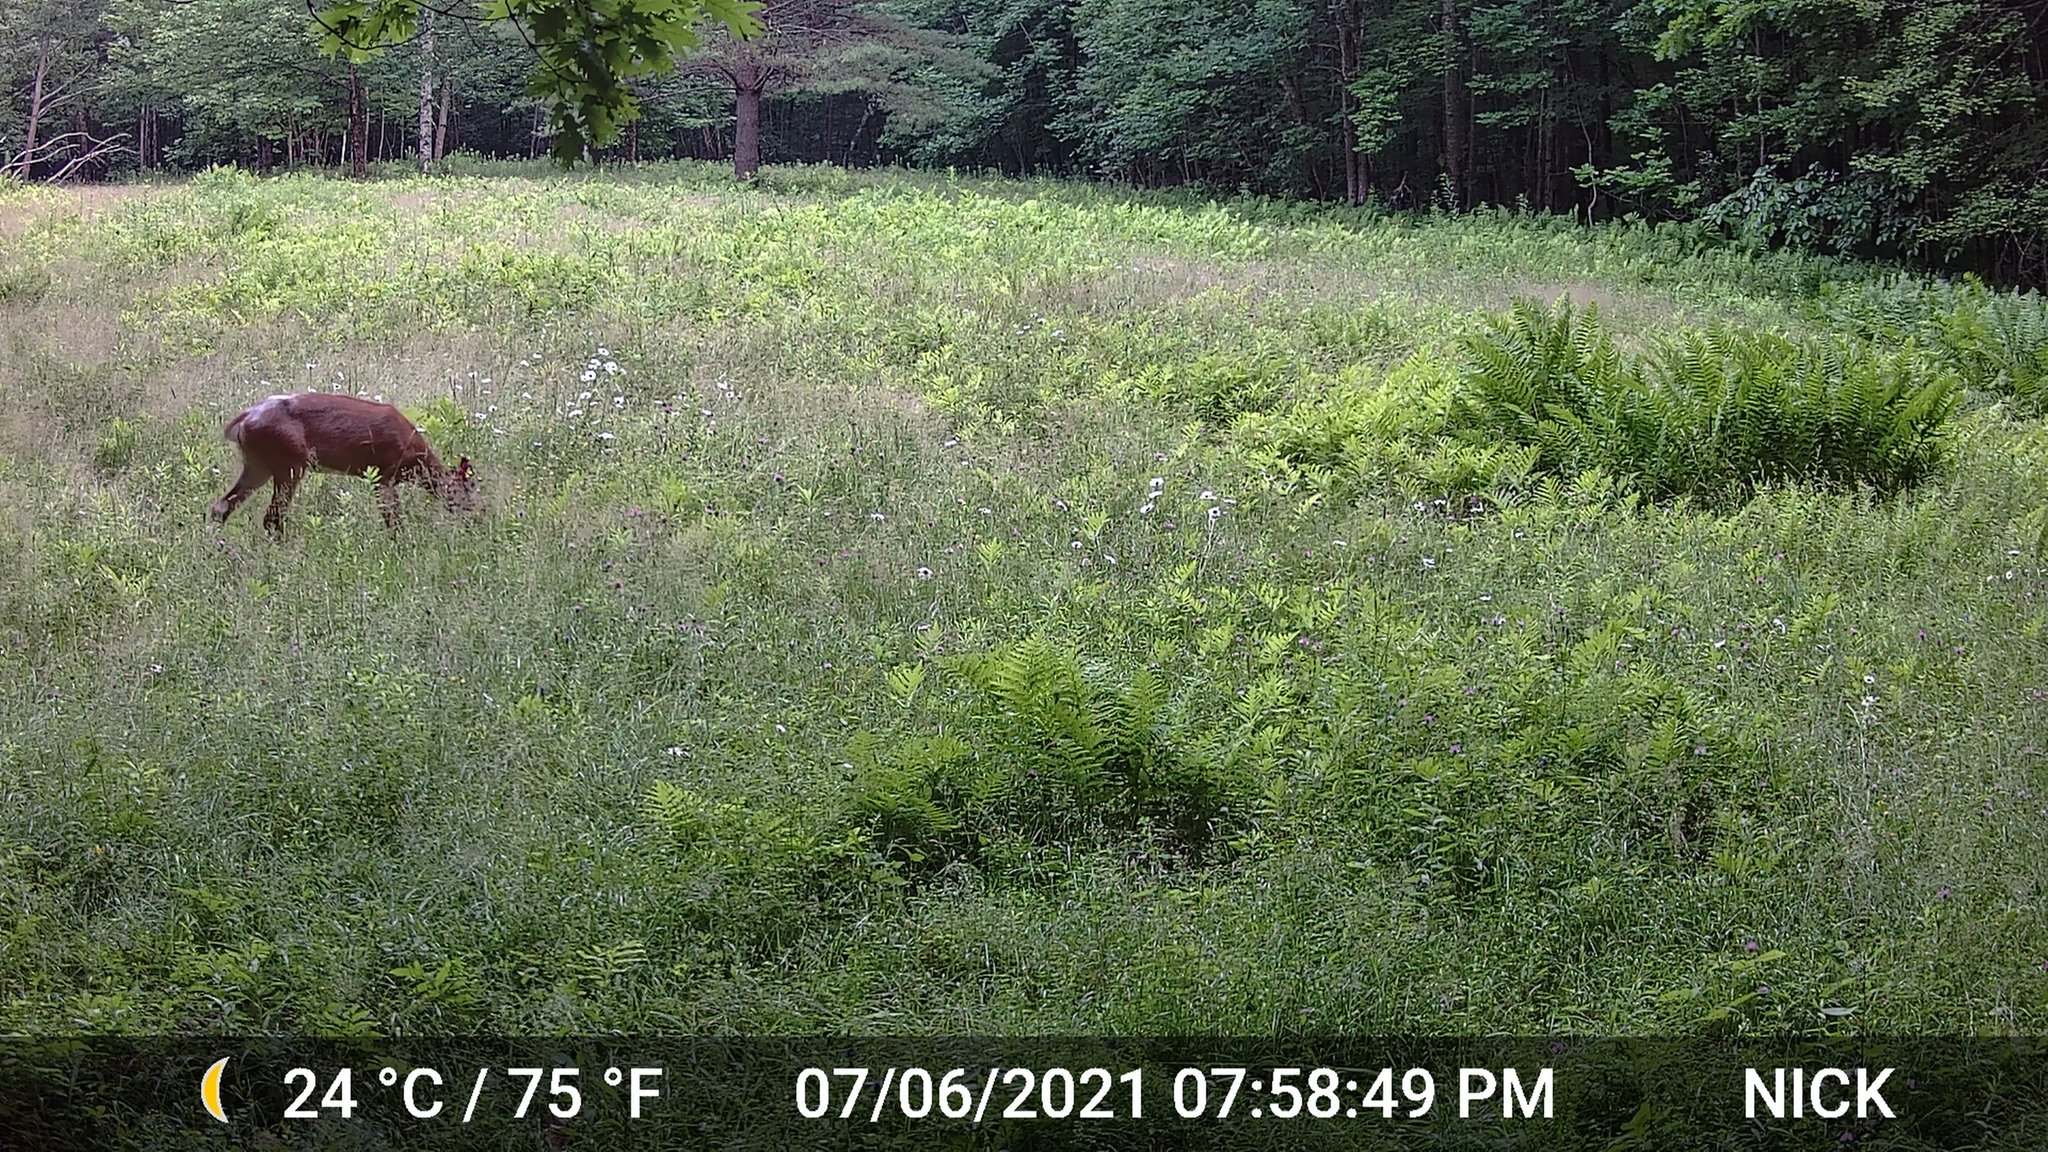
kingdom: Animalia
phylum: Chordata
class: Mammalia
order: Artiodactyla
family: Cervidae
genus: Odocoileus
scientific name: Odocoileus virginianus
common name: White-tailed deer
